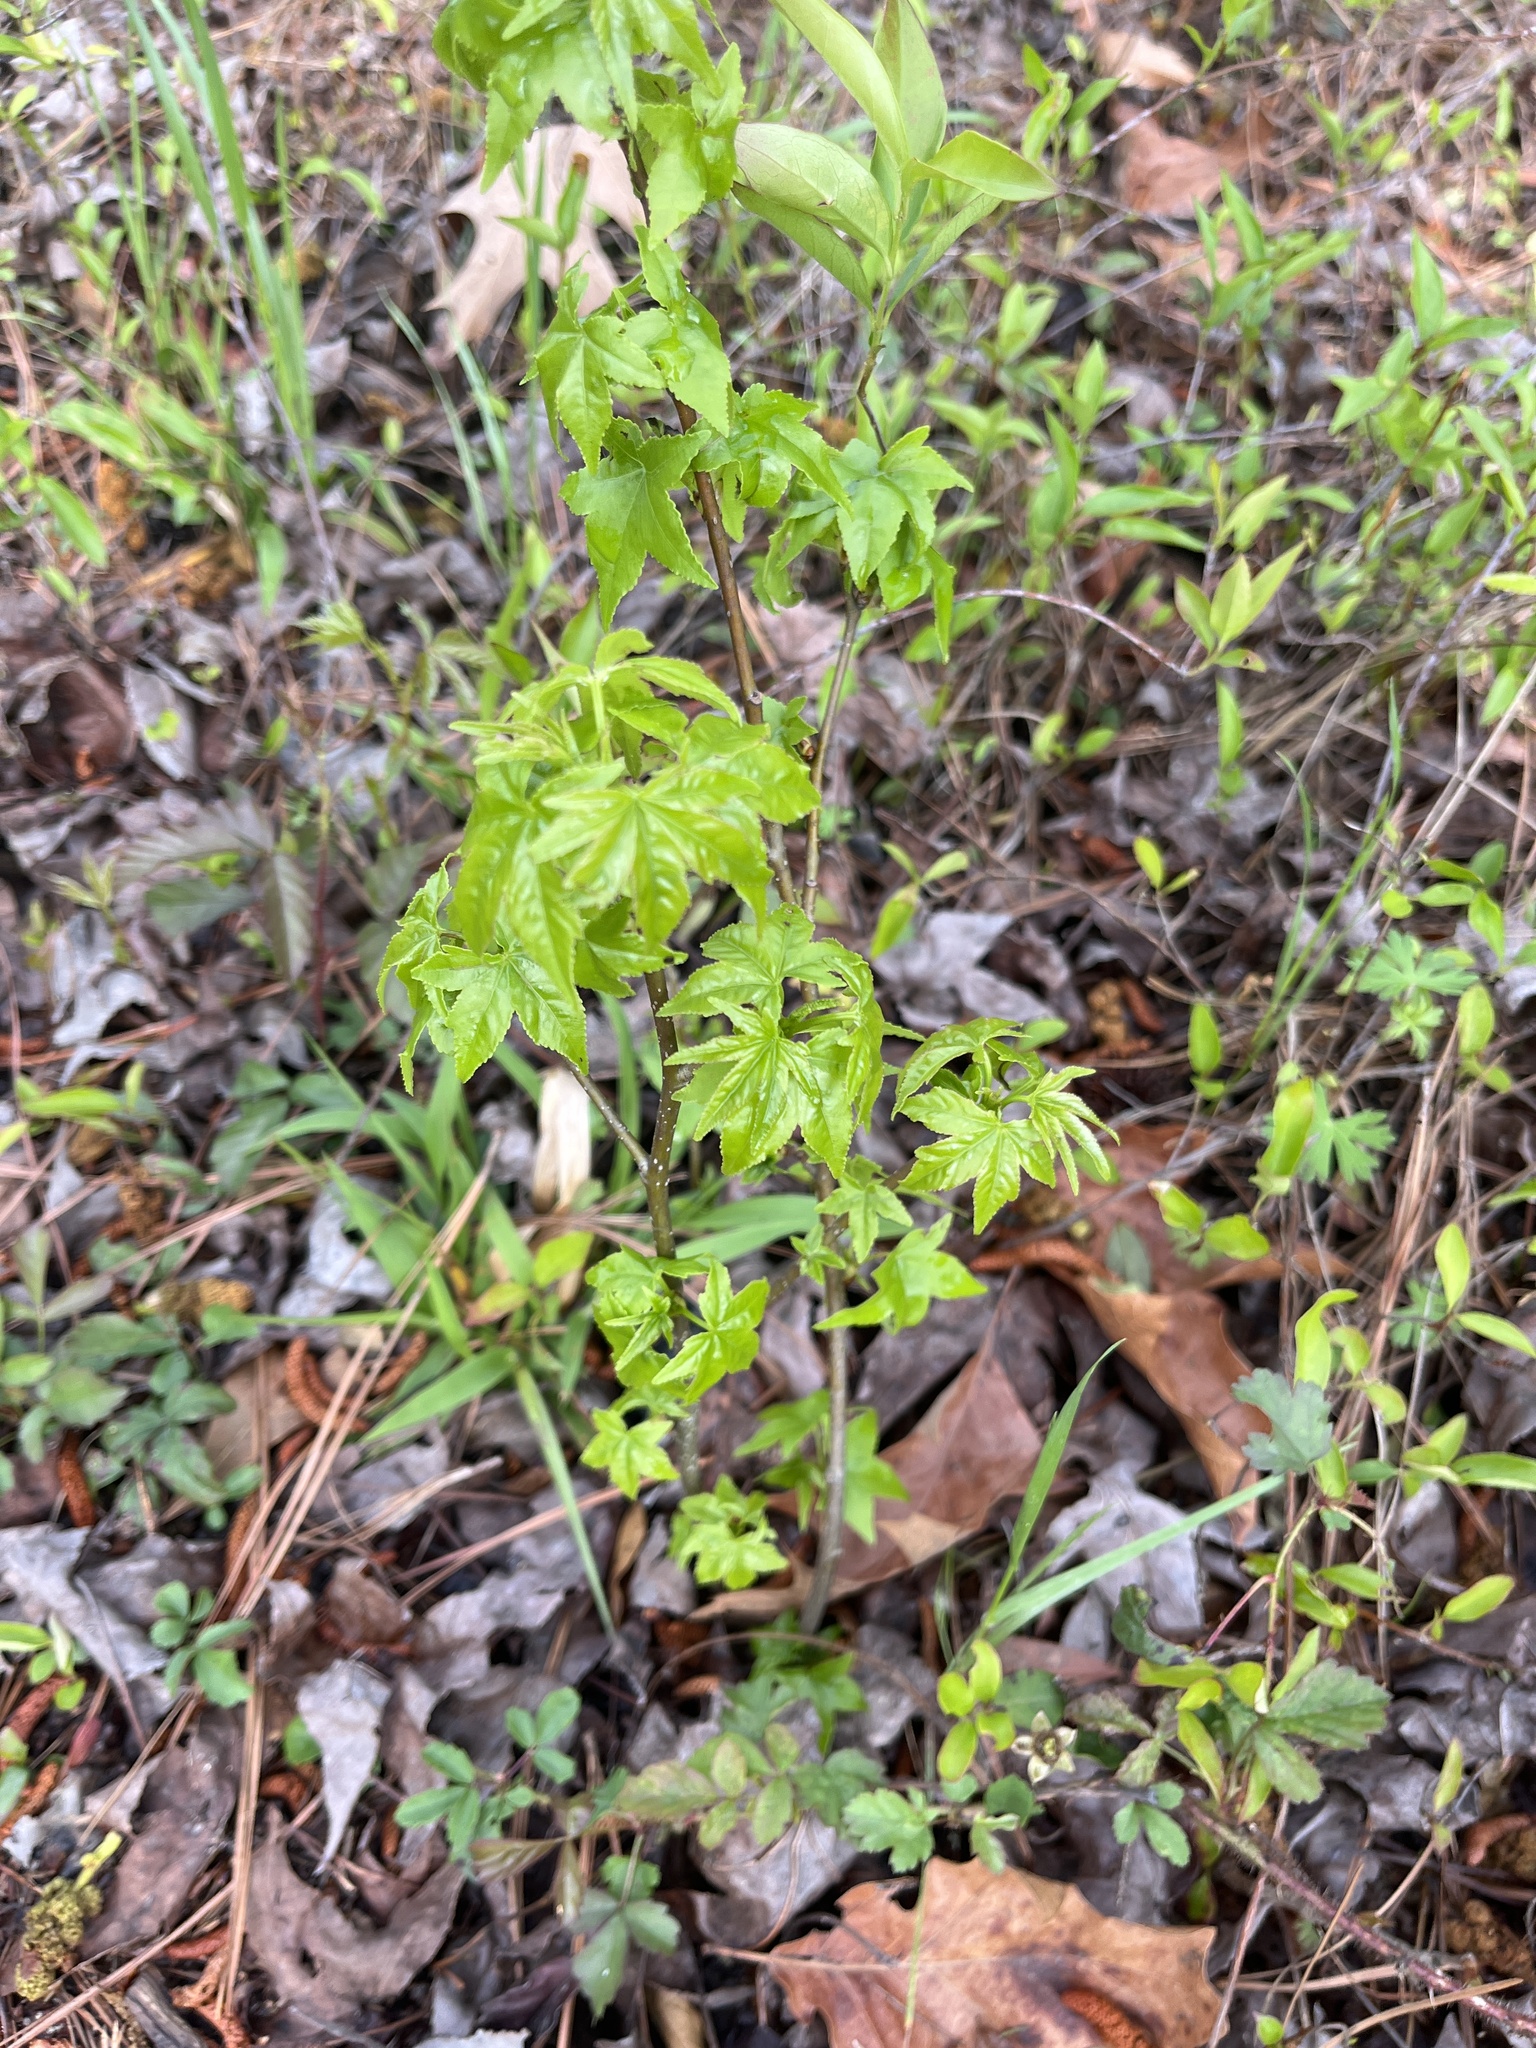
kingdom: Plantae
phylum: Tracheophyta
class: Magnoliopsida
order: Saxifragales
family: Altingiaceae
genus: Liquidambar
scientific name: Liquidambar styraciflua
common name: Sweet gum
